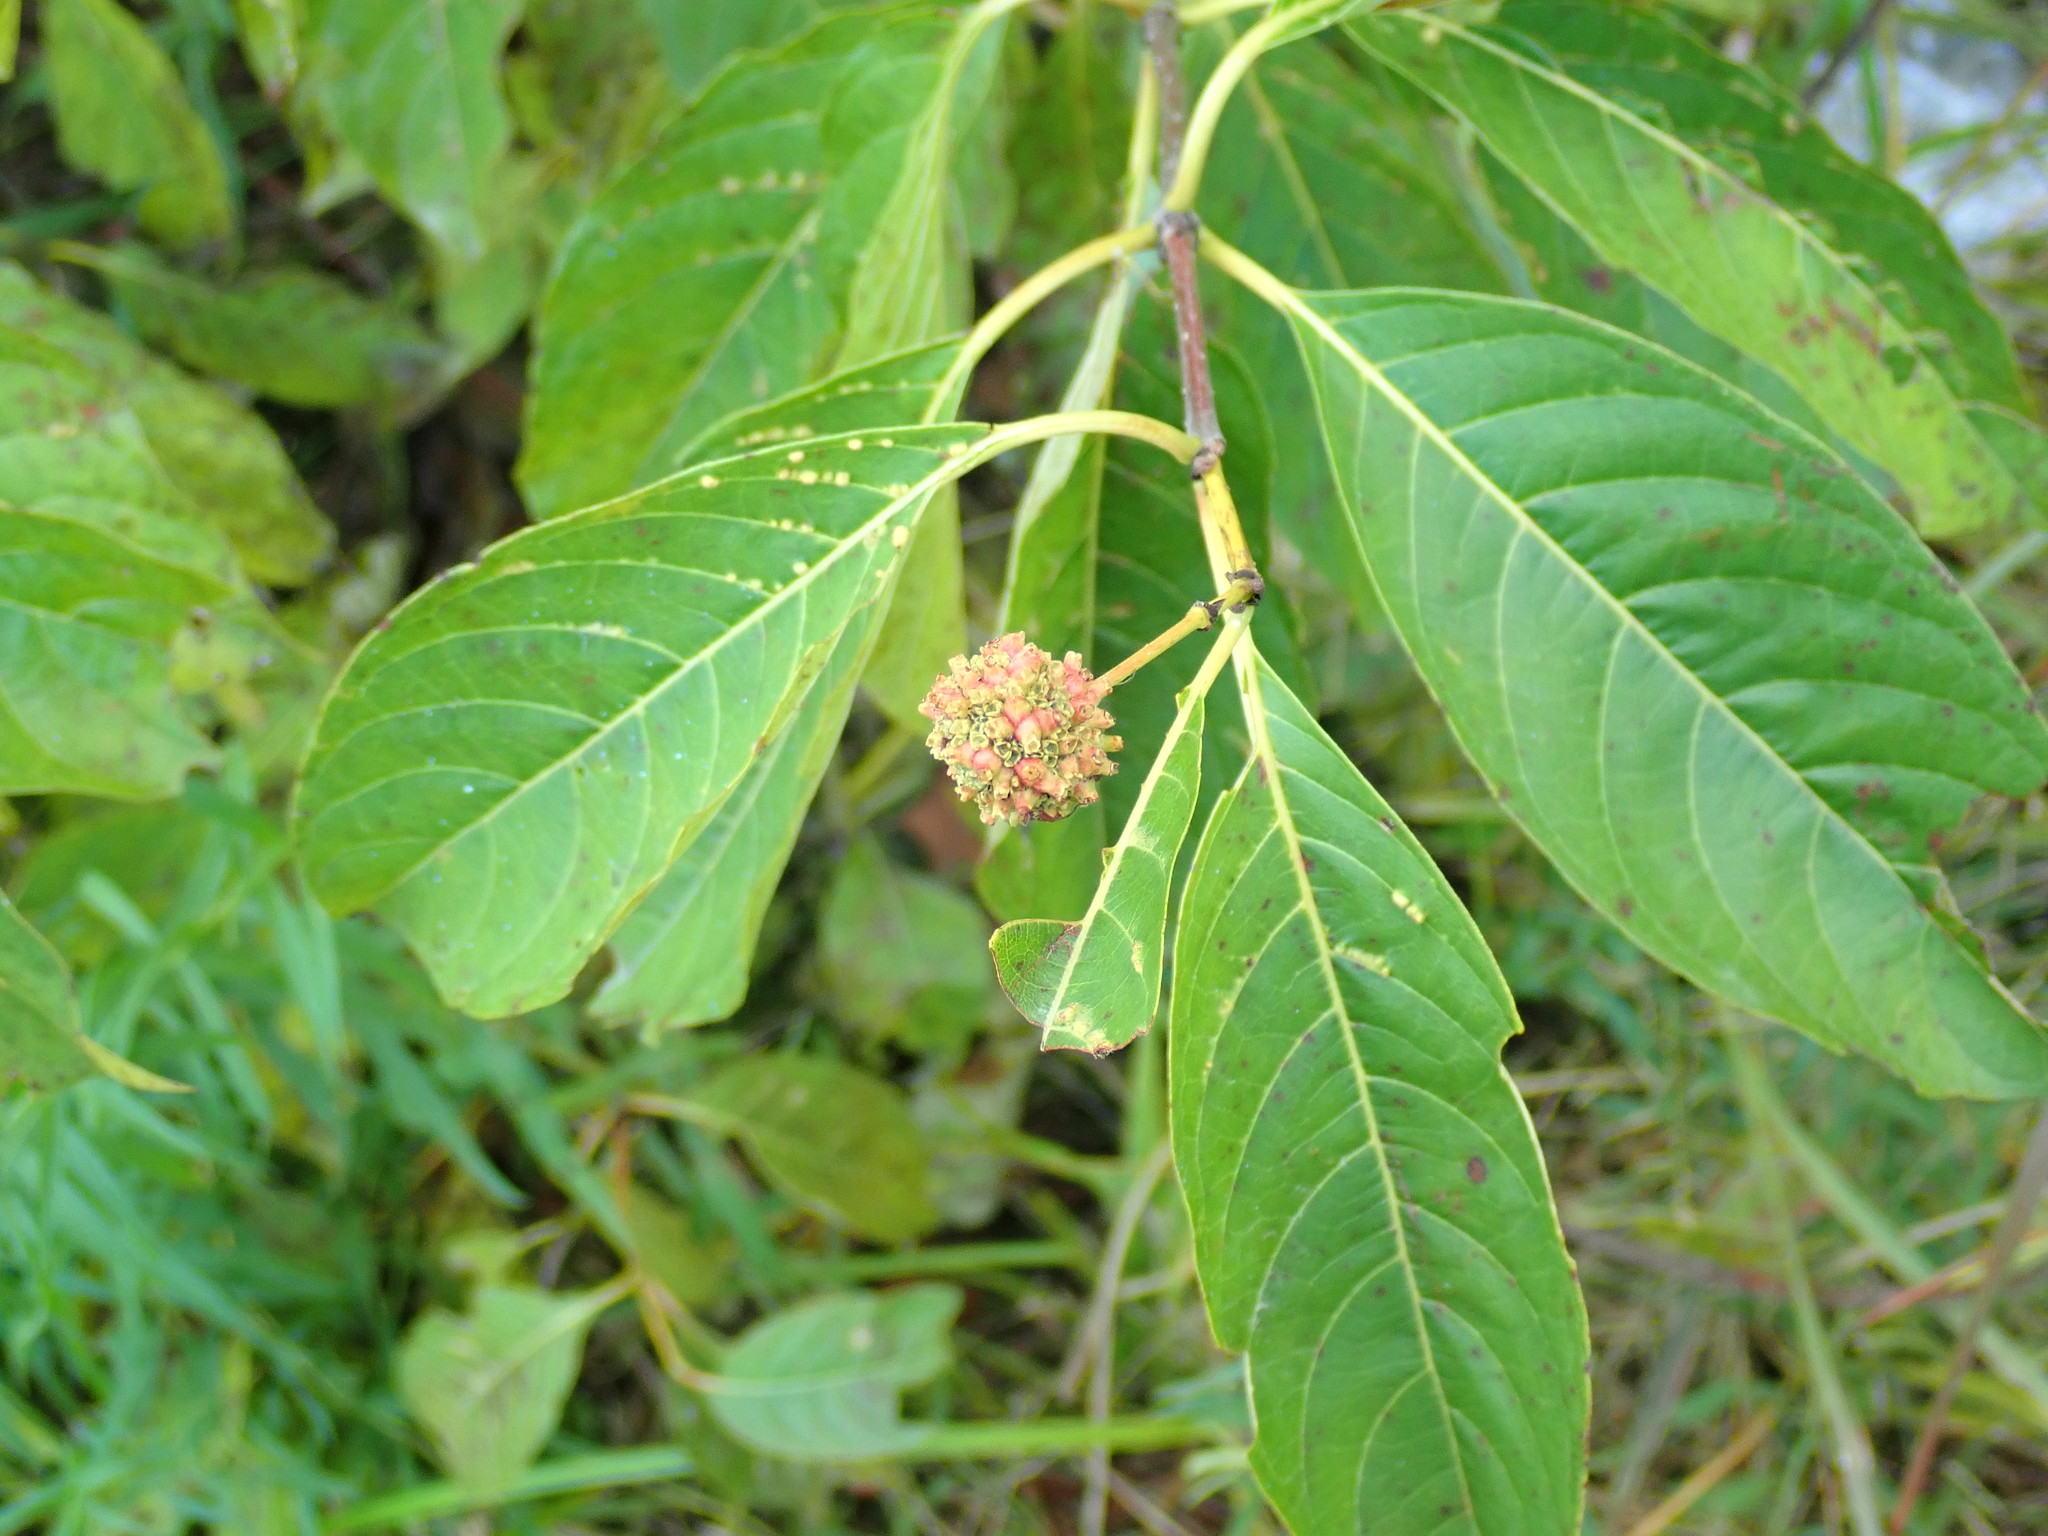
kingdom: Animalia
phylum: Arthropoda
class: Arachnida
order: Trombidiformes
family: Eriophyidae
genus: Aceria
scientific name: Aceria
